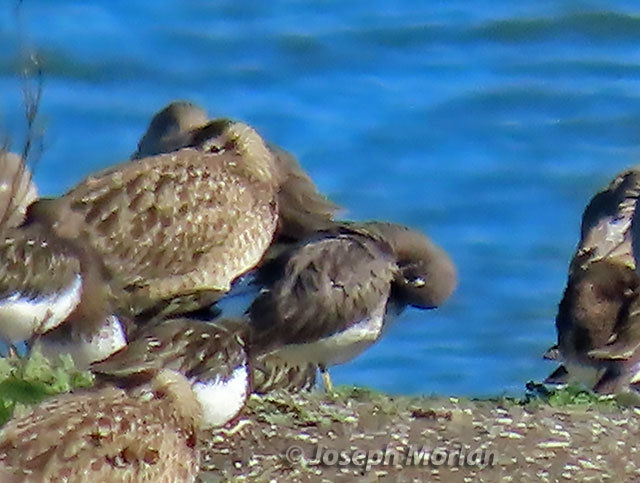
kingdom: Animalia
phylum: Chordata
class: Aves
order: Charadriiformes
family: Scolopacidae
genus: Calidris
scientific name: Calidris virgata
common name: Surfbird
